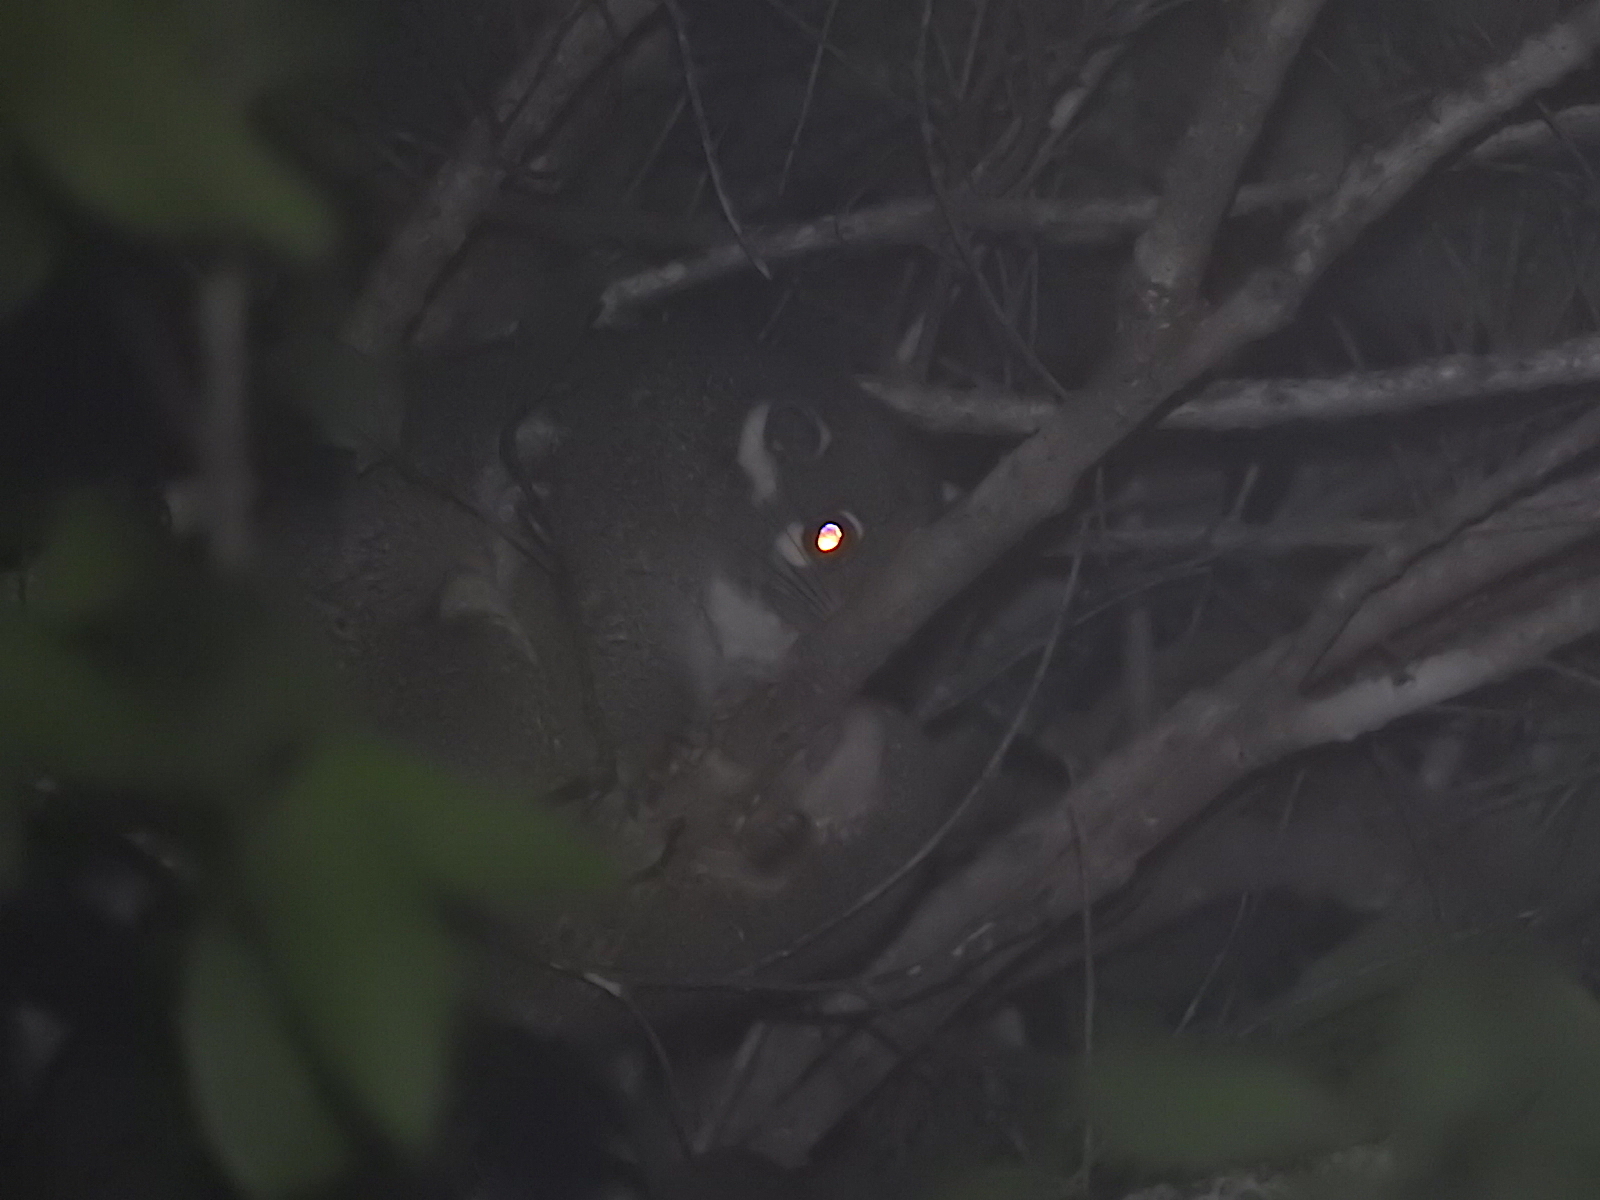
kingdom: Animalia
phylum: Chordata
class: Mammalia
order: Diprotodontia
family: Pseudocheiridae
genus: Pseudochirops
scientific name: Pseudochirops archeri
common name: Green ringtail
